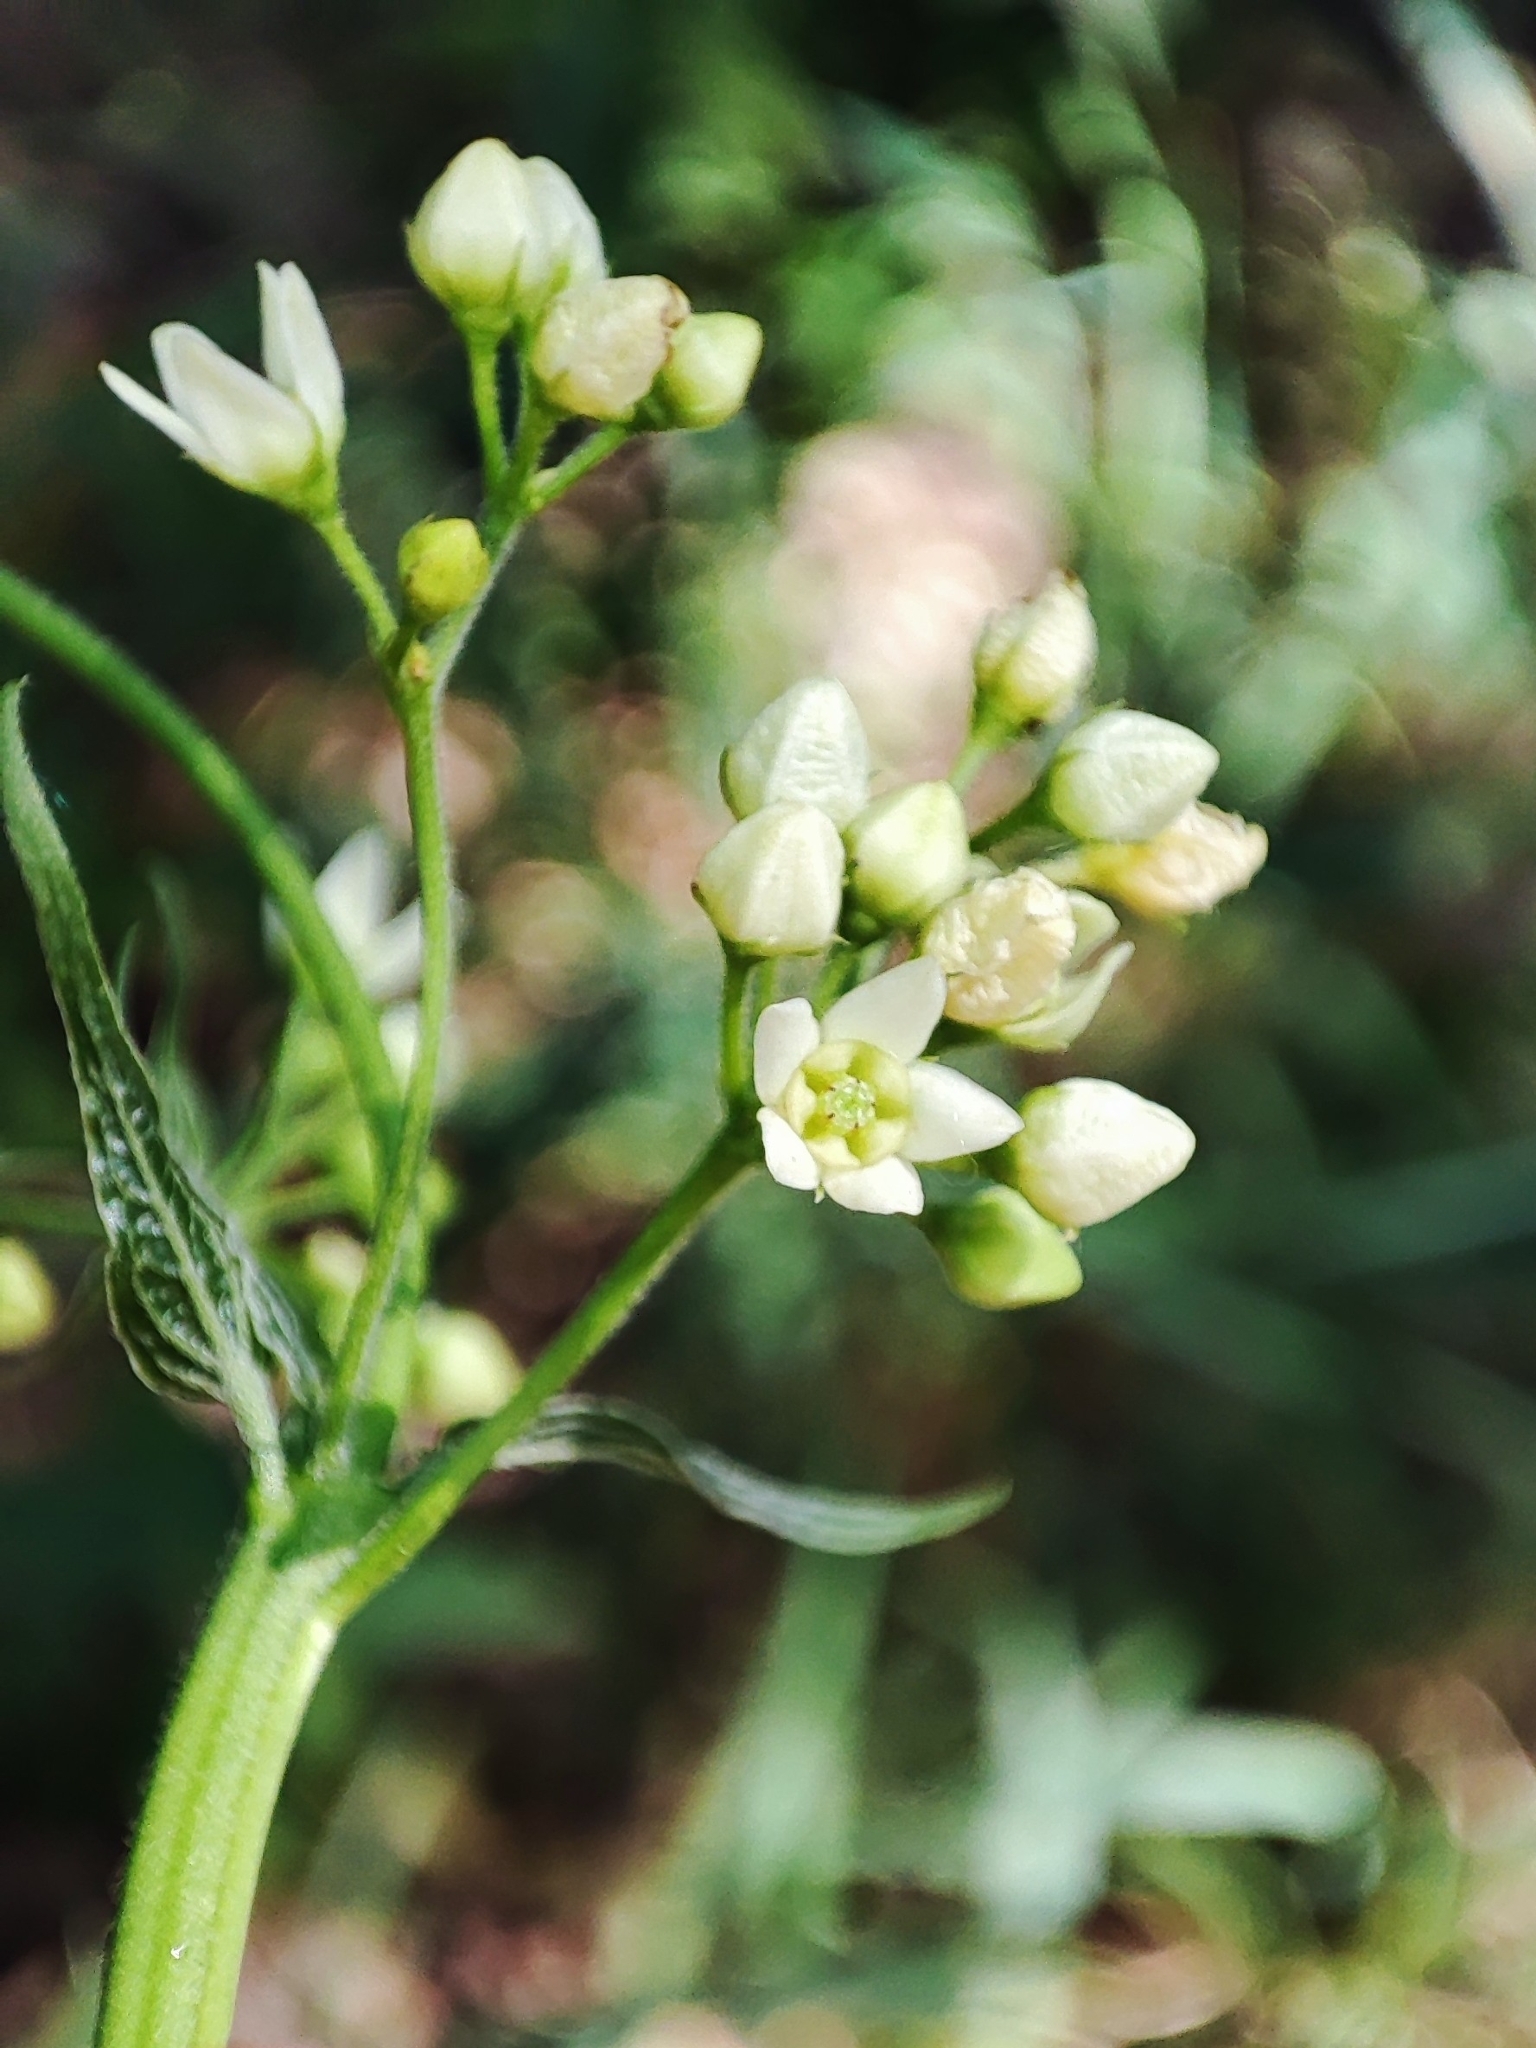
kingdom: Plantae
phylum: Tracheophyta
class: Magnoliopsida
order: Gentianales
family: Apocynaceae
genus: Vincetoxicum
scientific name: Vincetoxicum hirundinaria
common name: White swallowwort
